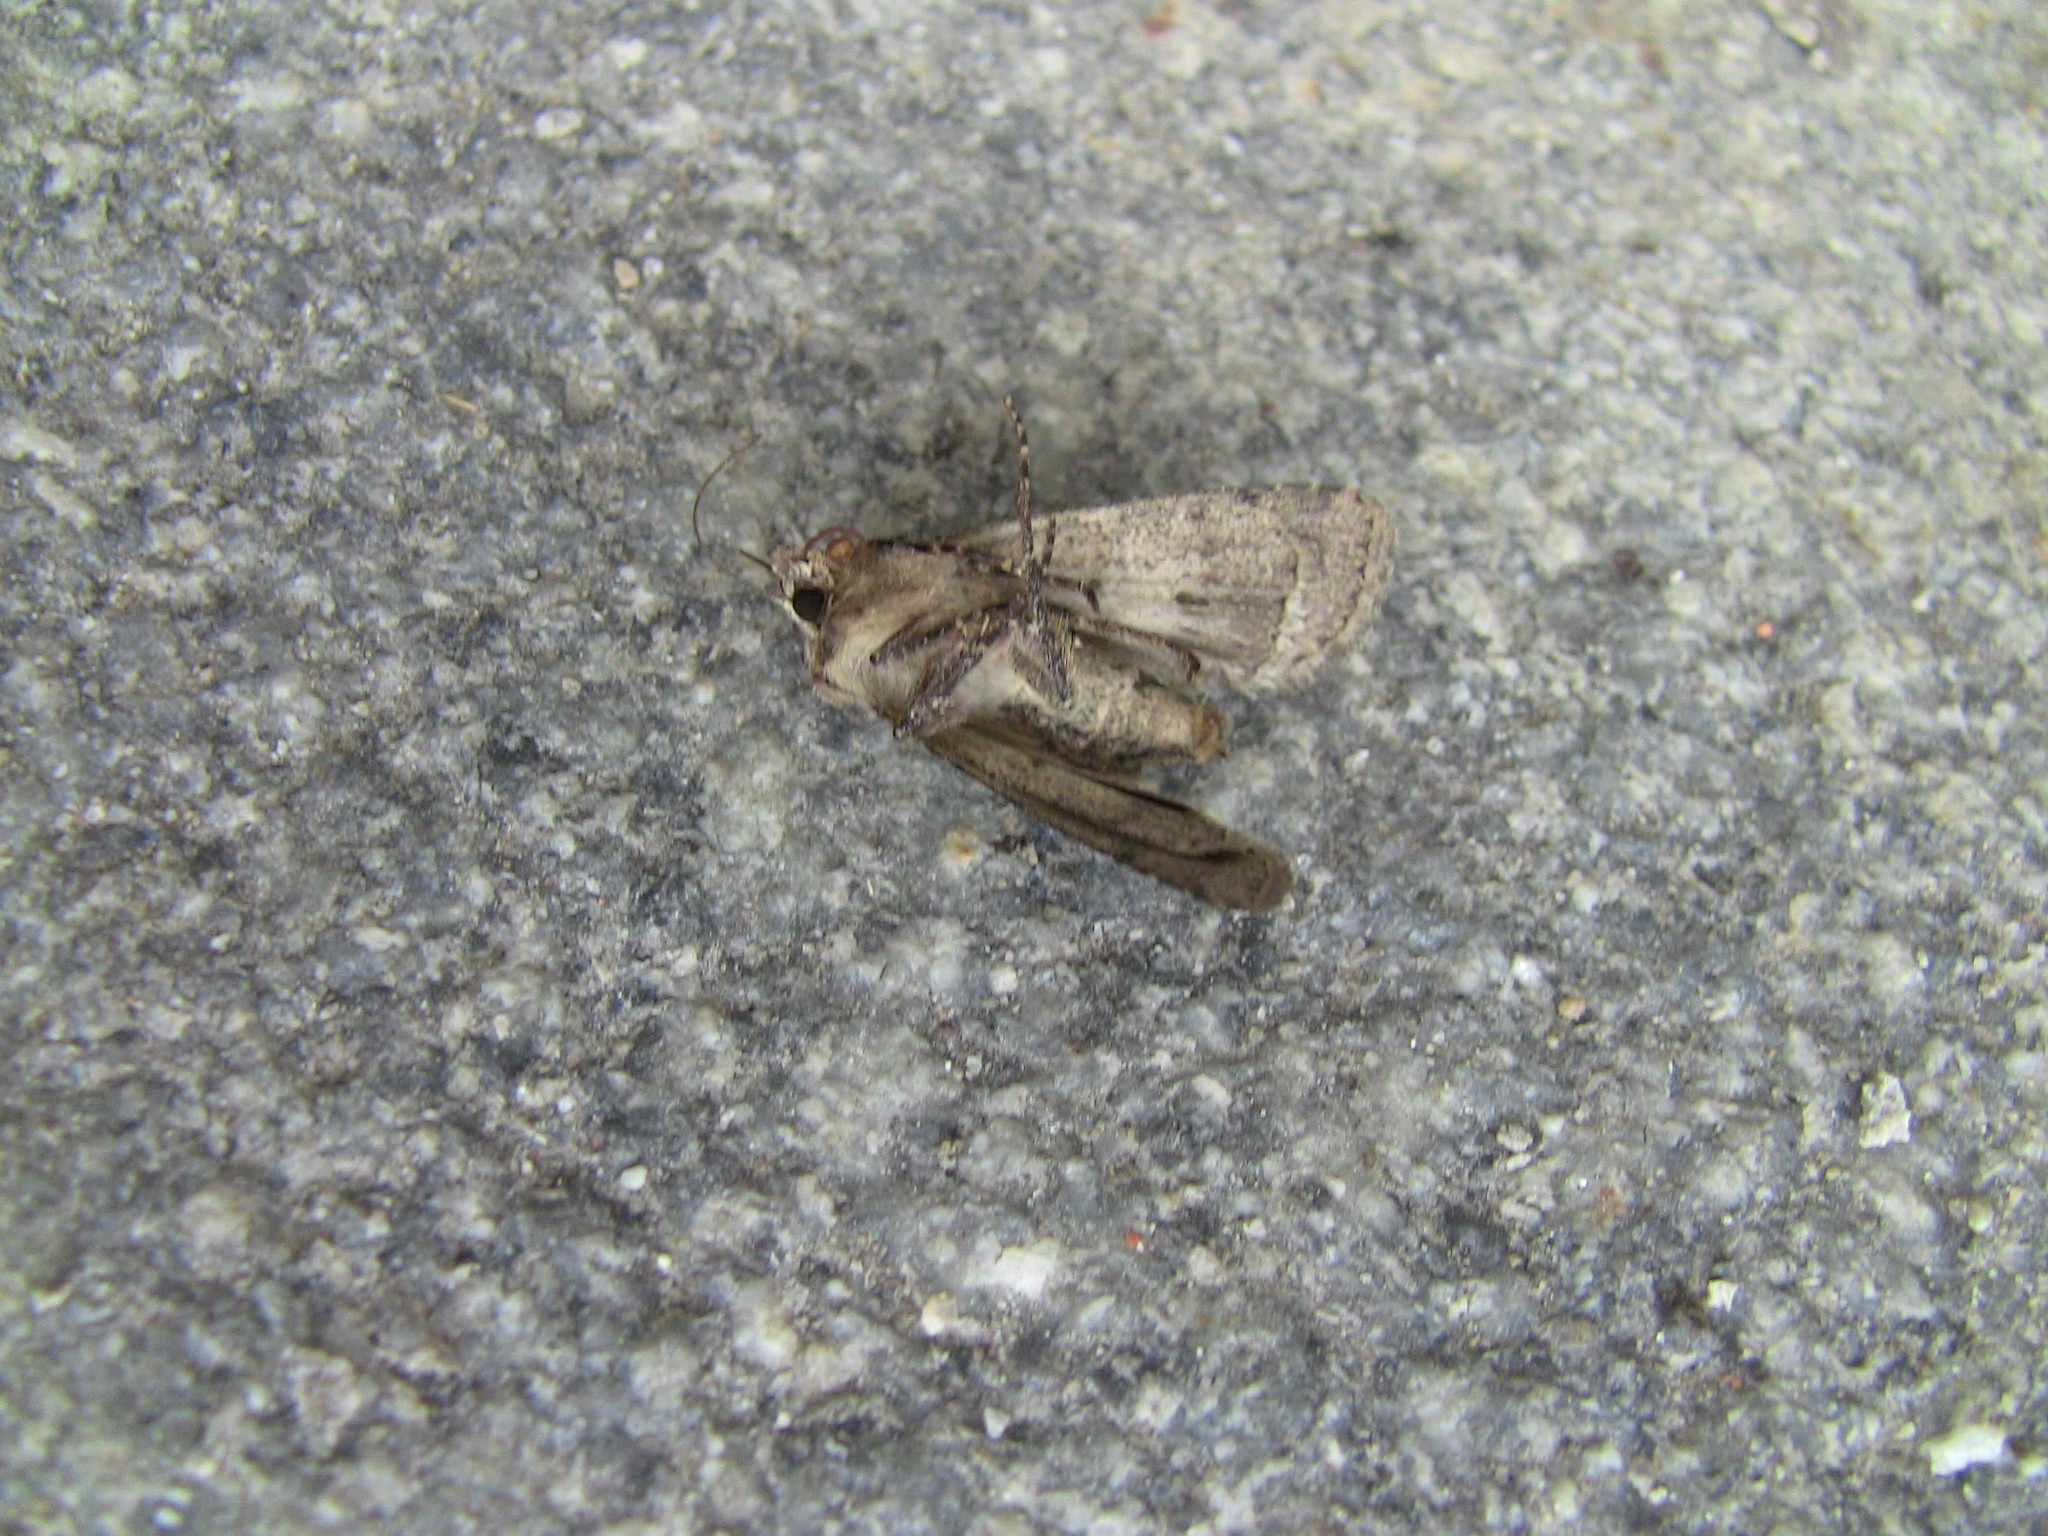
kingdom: Animalia
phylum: Arthropoda
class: Insecta
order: Lepidoptera
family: Noctuidae
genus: Euxoa
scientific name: Euxoa tessellata
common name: Striped cutworm
